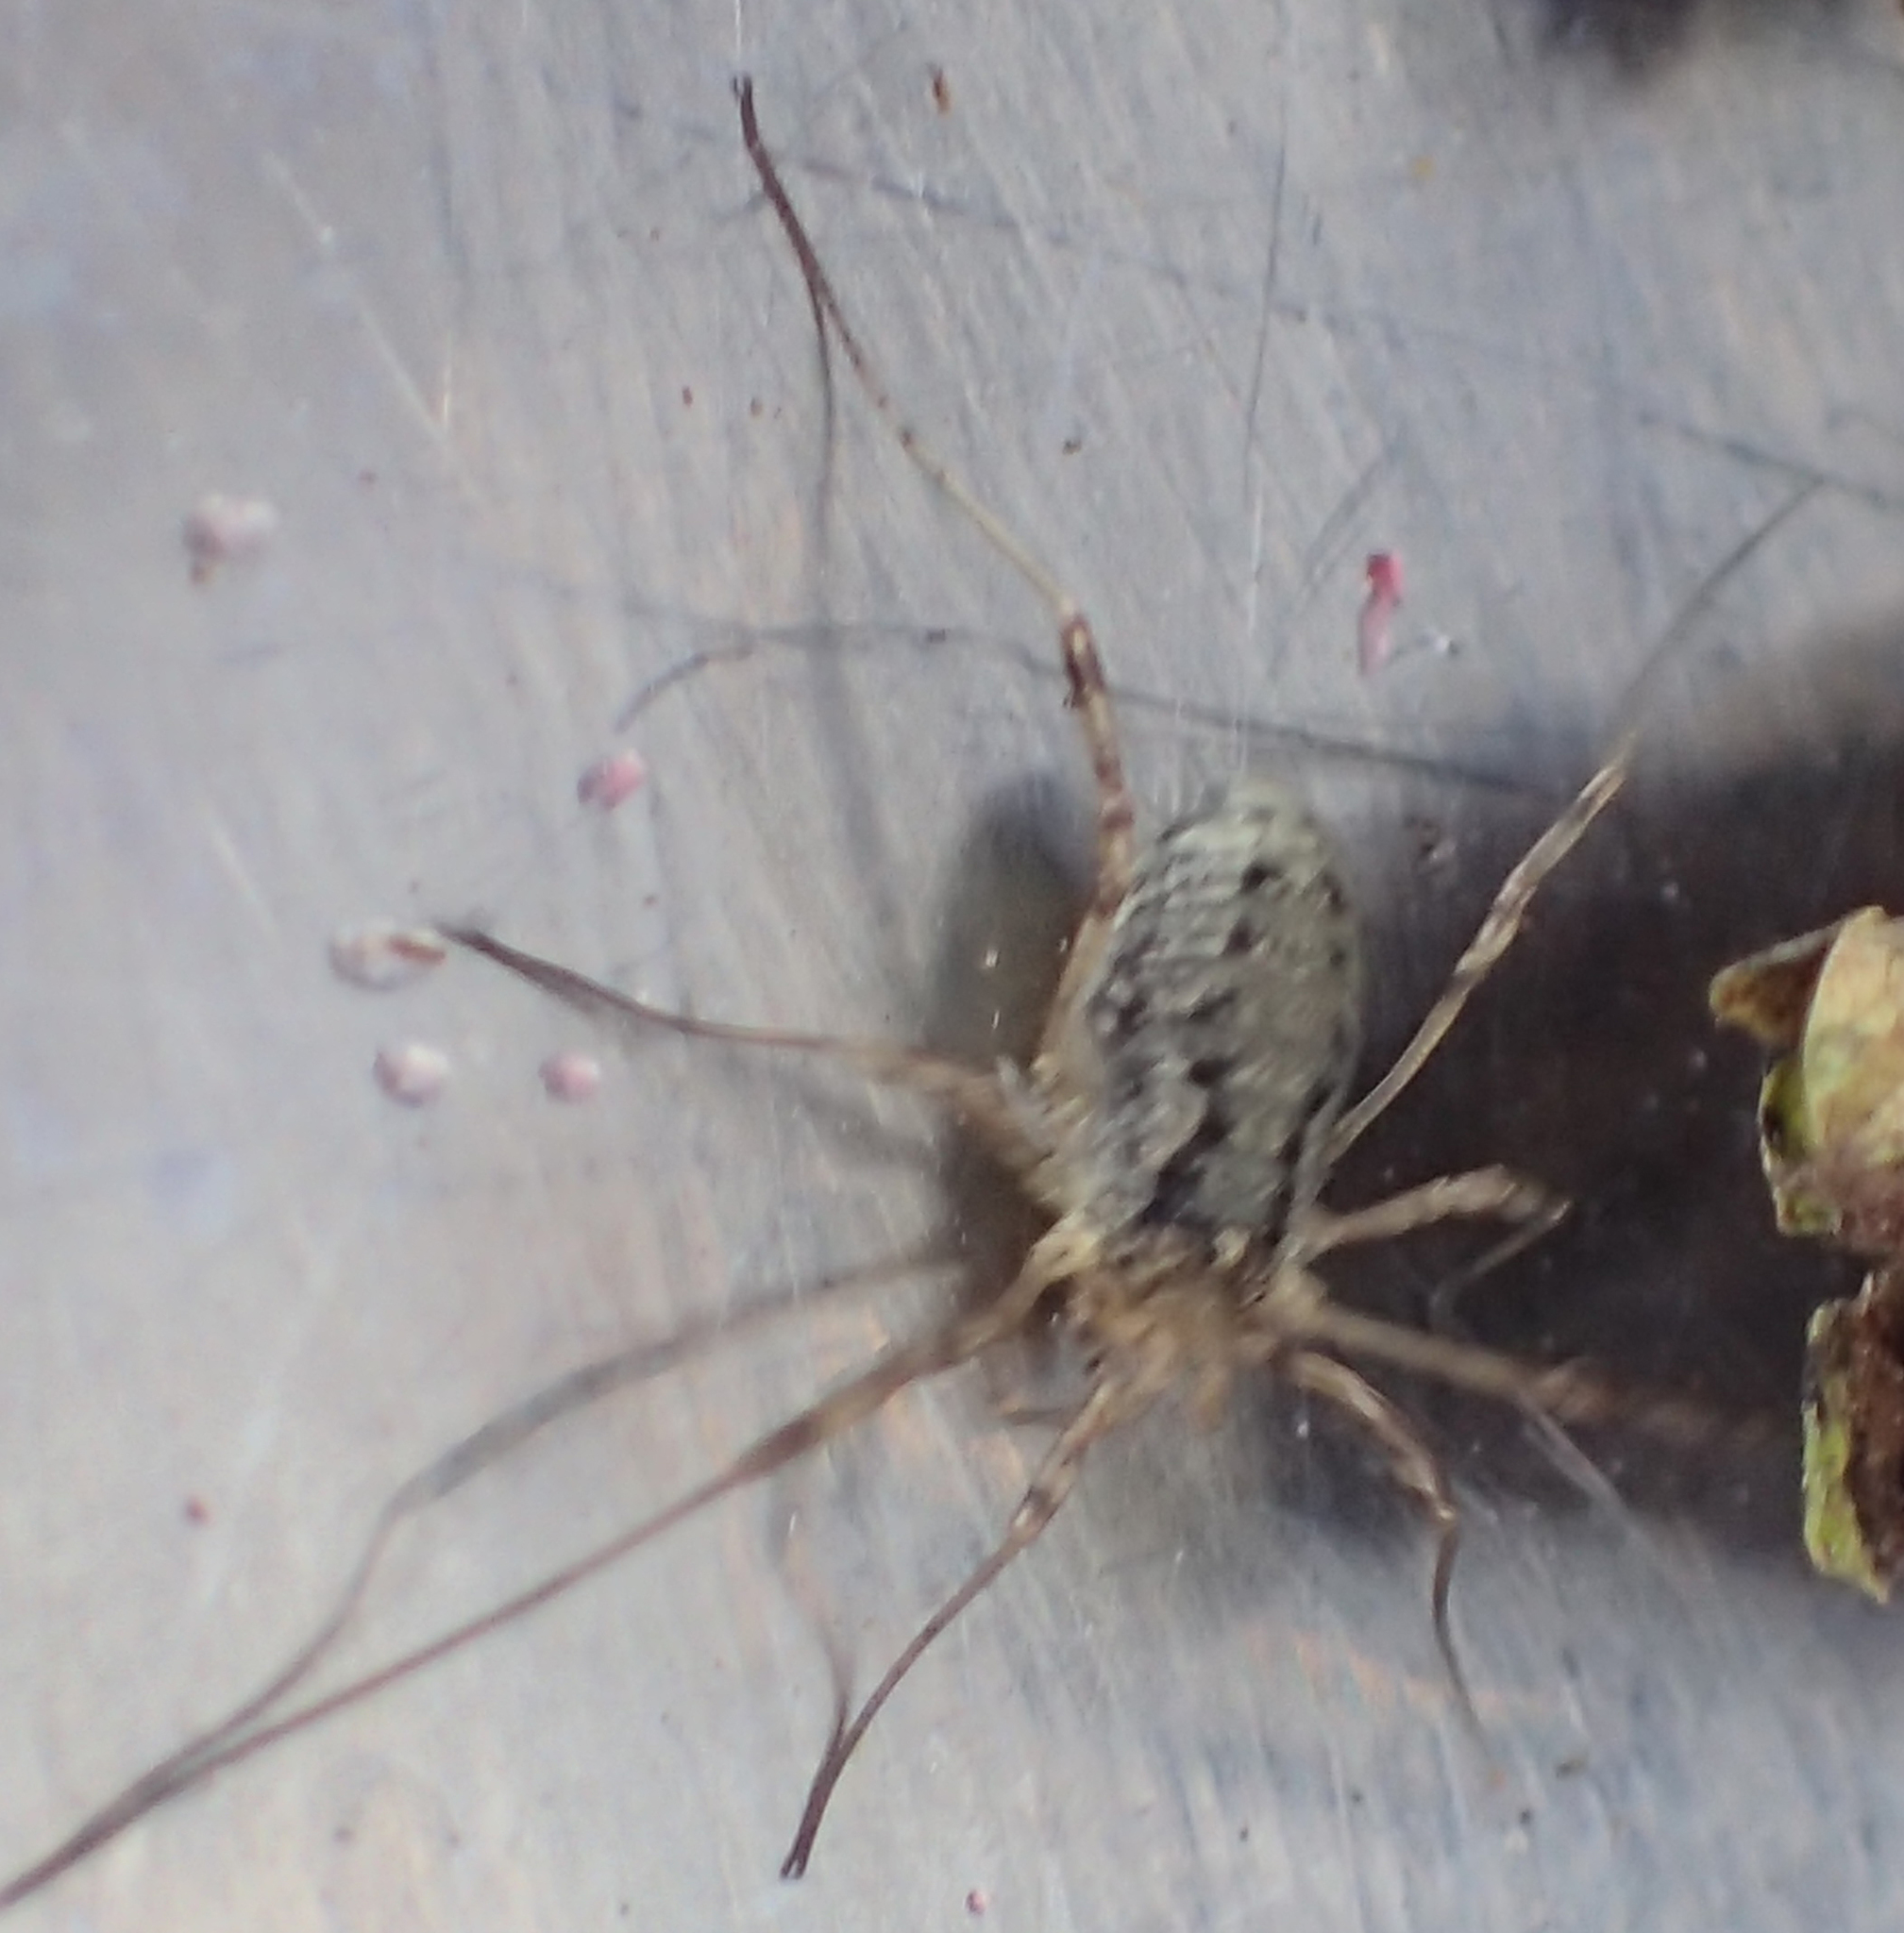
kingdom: Animalia
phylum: Arthropoda
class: Arachnida
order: Opiliones
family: Phalangiidae
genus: Oligolophus
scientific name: Oligolophus tridens
